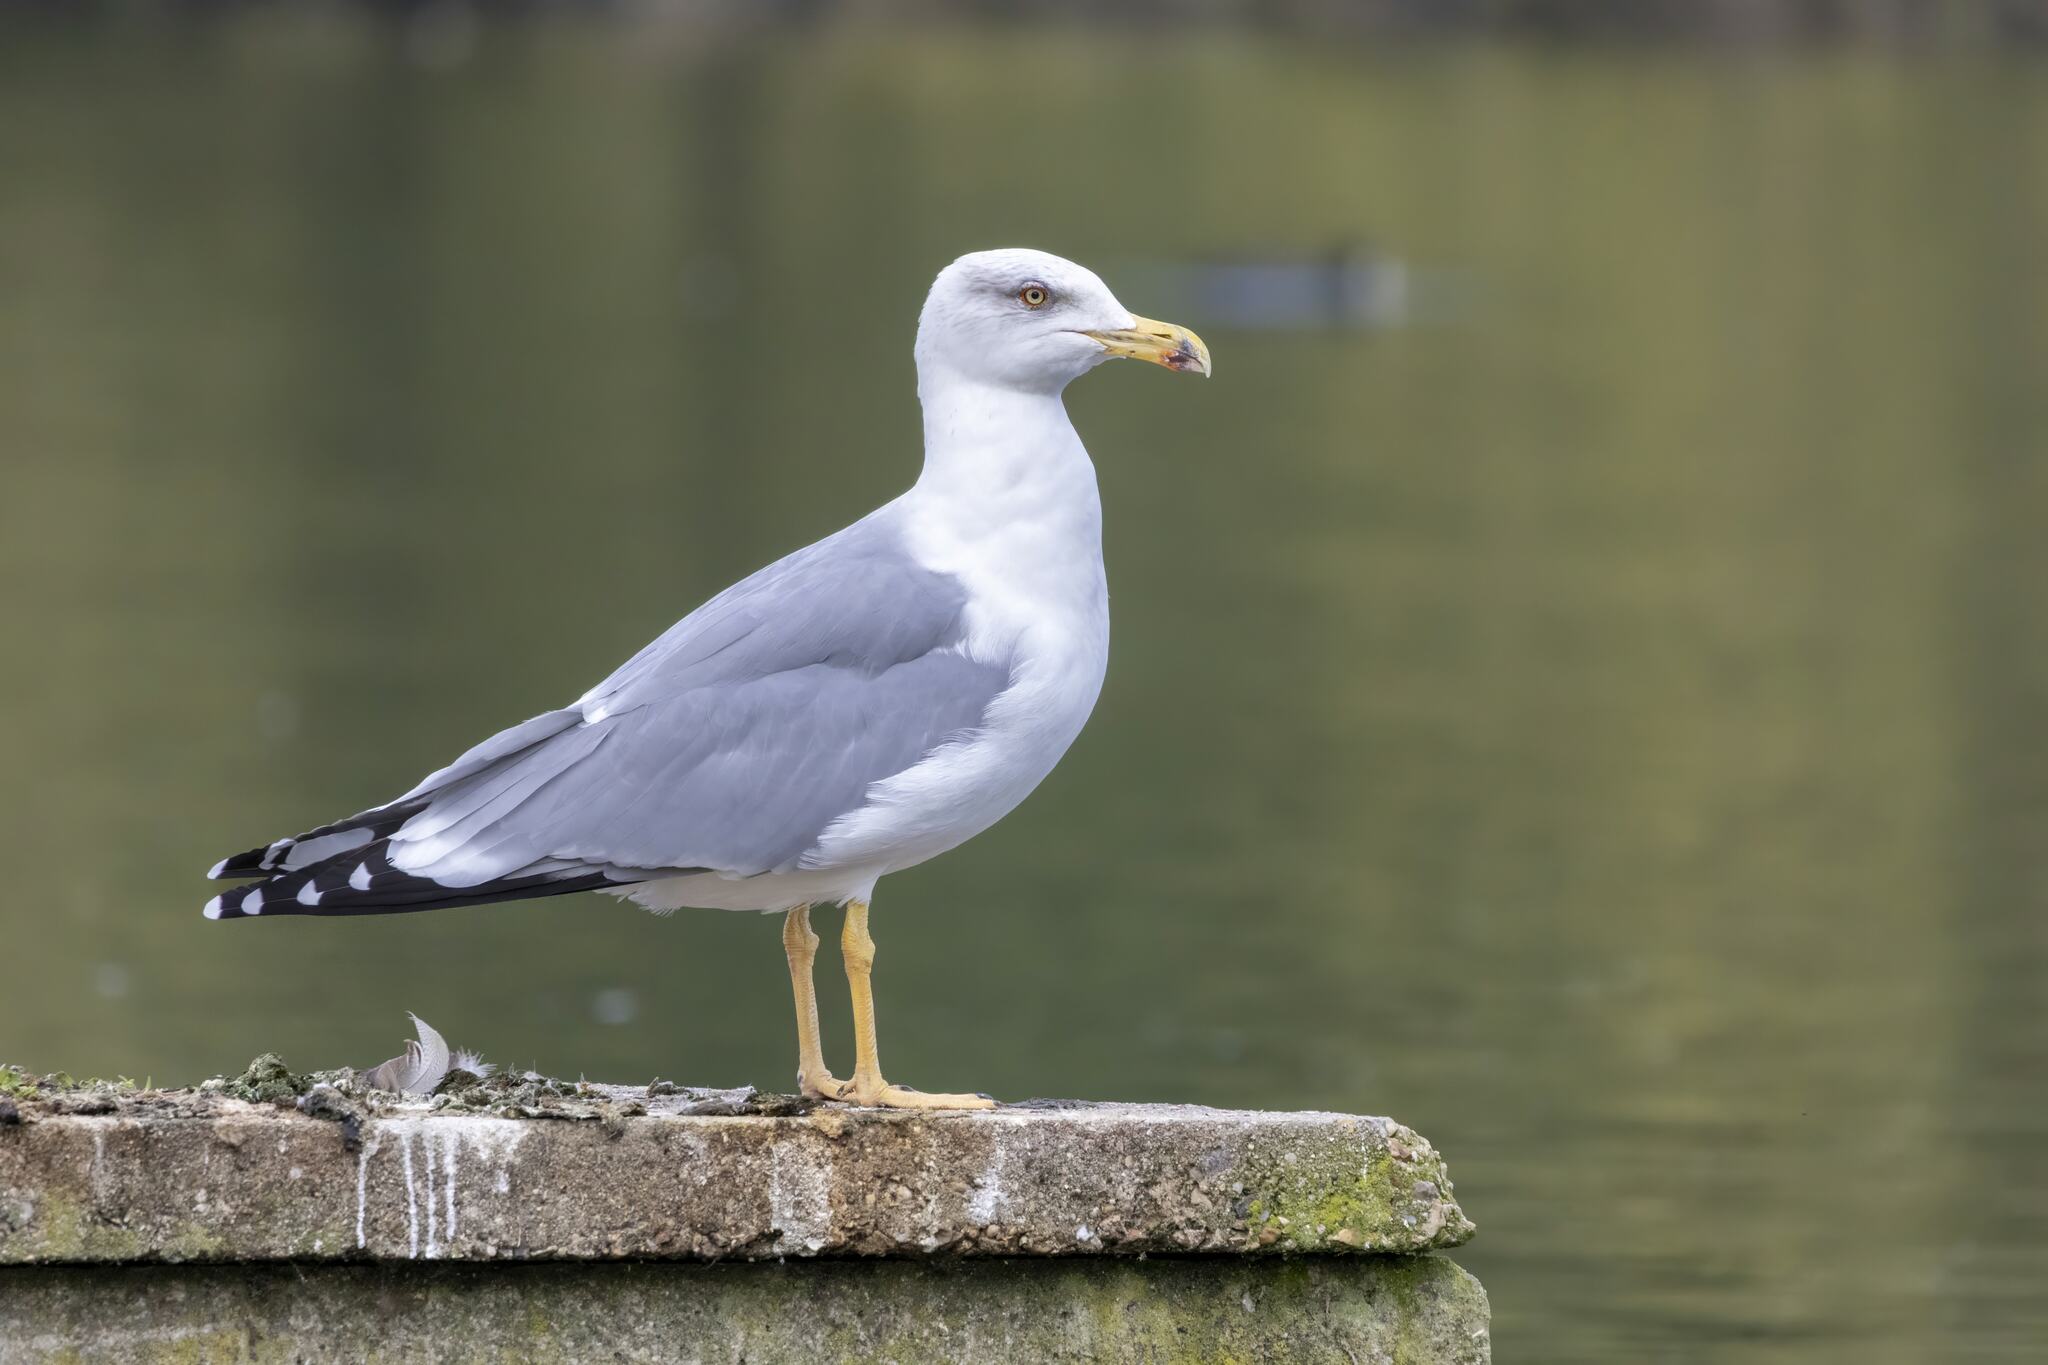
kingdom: Animalia
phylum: Chordata
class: Aves
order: Charadriiformes
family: Laridae
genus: Larus
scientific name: Larus michahellis
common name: Yellow-legged gull
